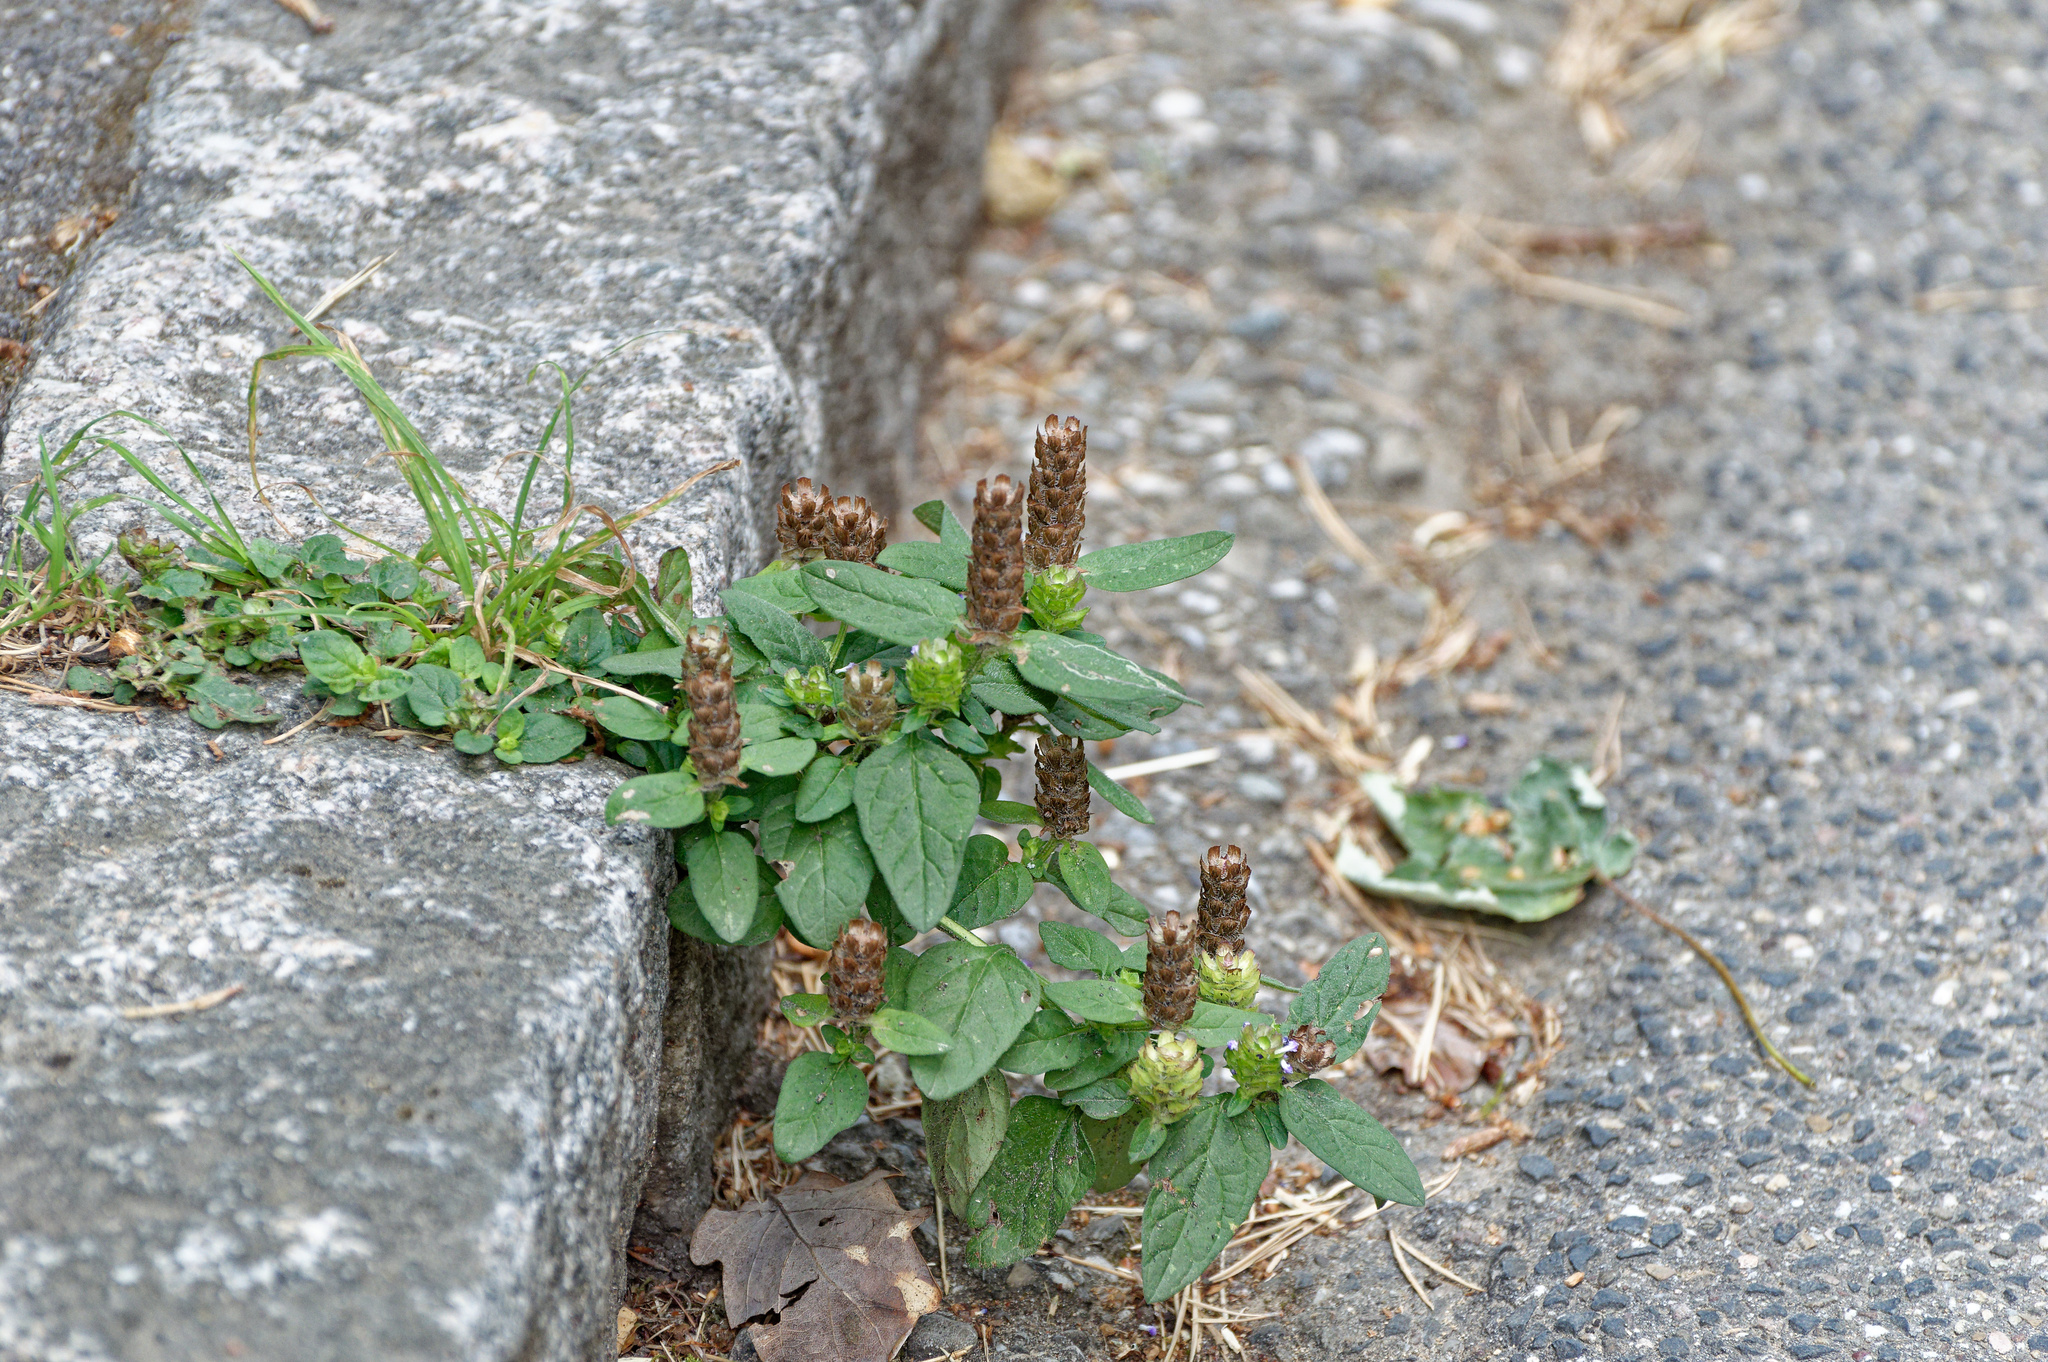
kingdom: Plantae
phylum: Tracheophyta
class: Magnoliopsida
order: Lamiales
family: Lamiaceae
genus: Prunella
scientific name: Prunella vulgaris
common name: Heal-all
